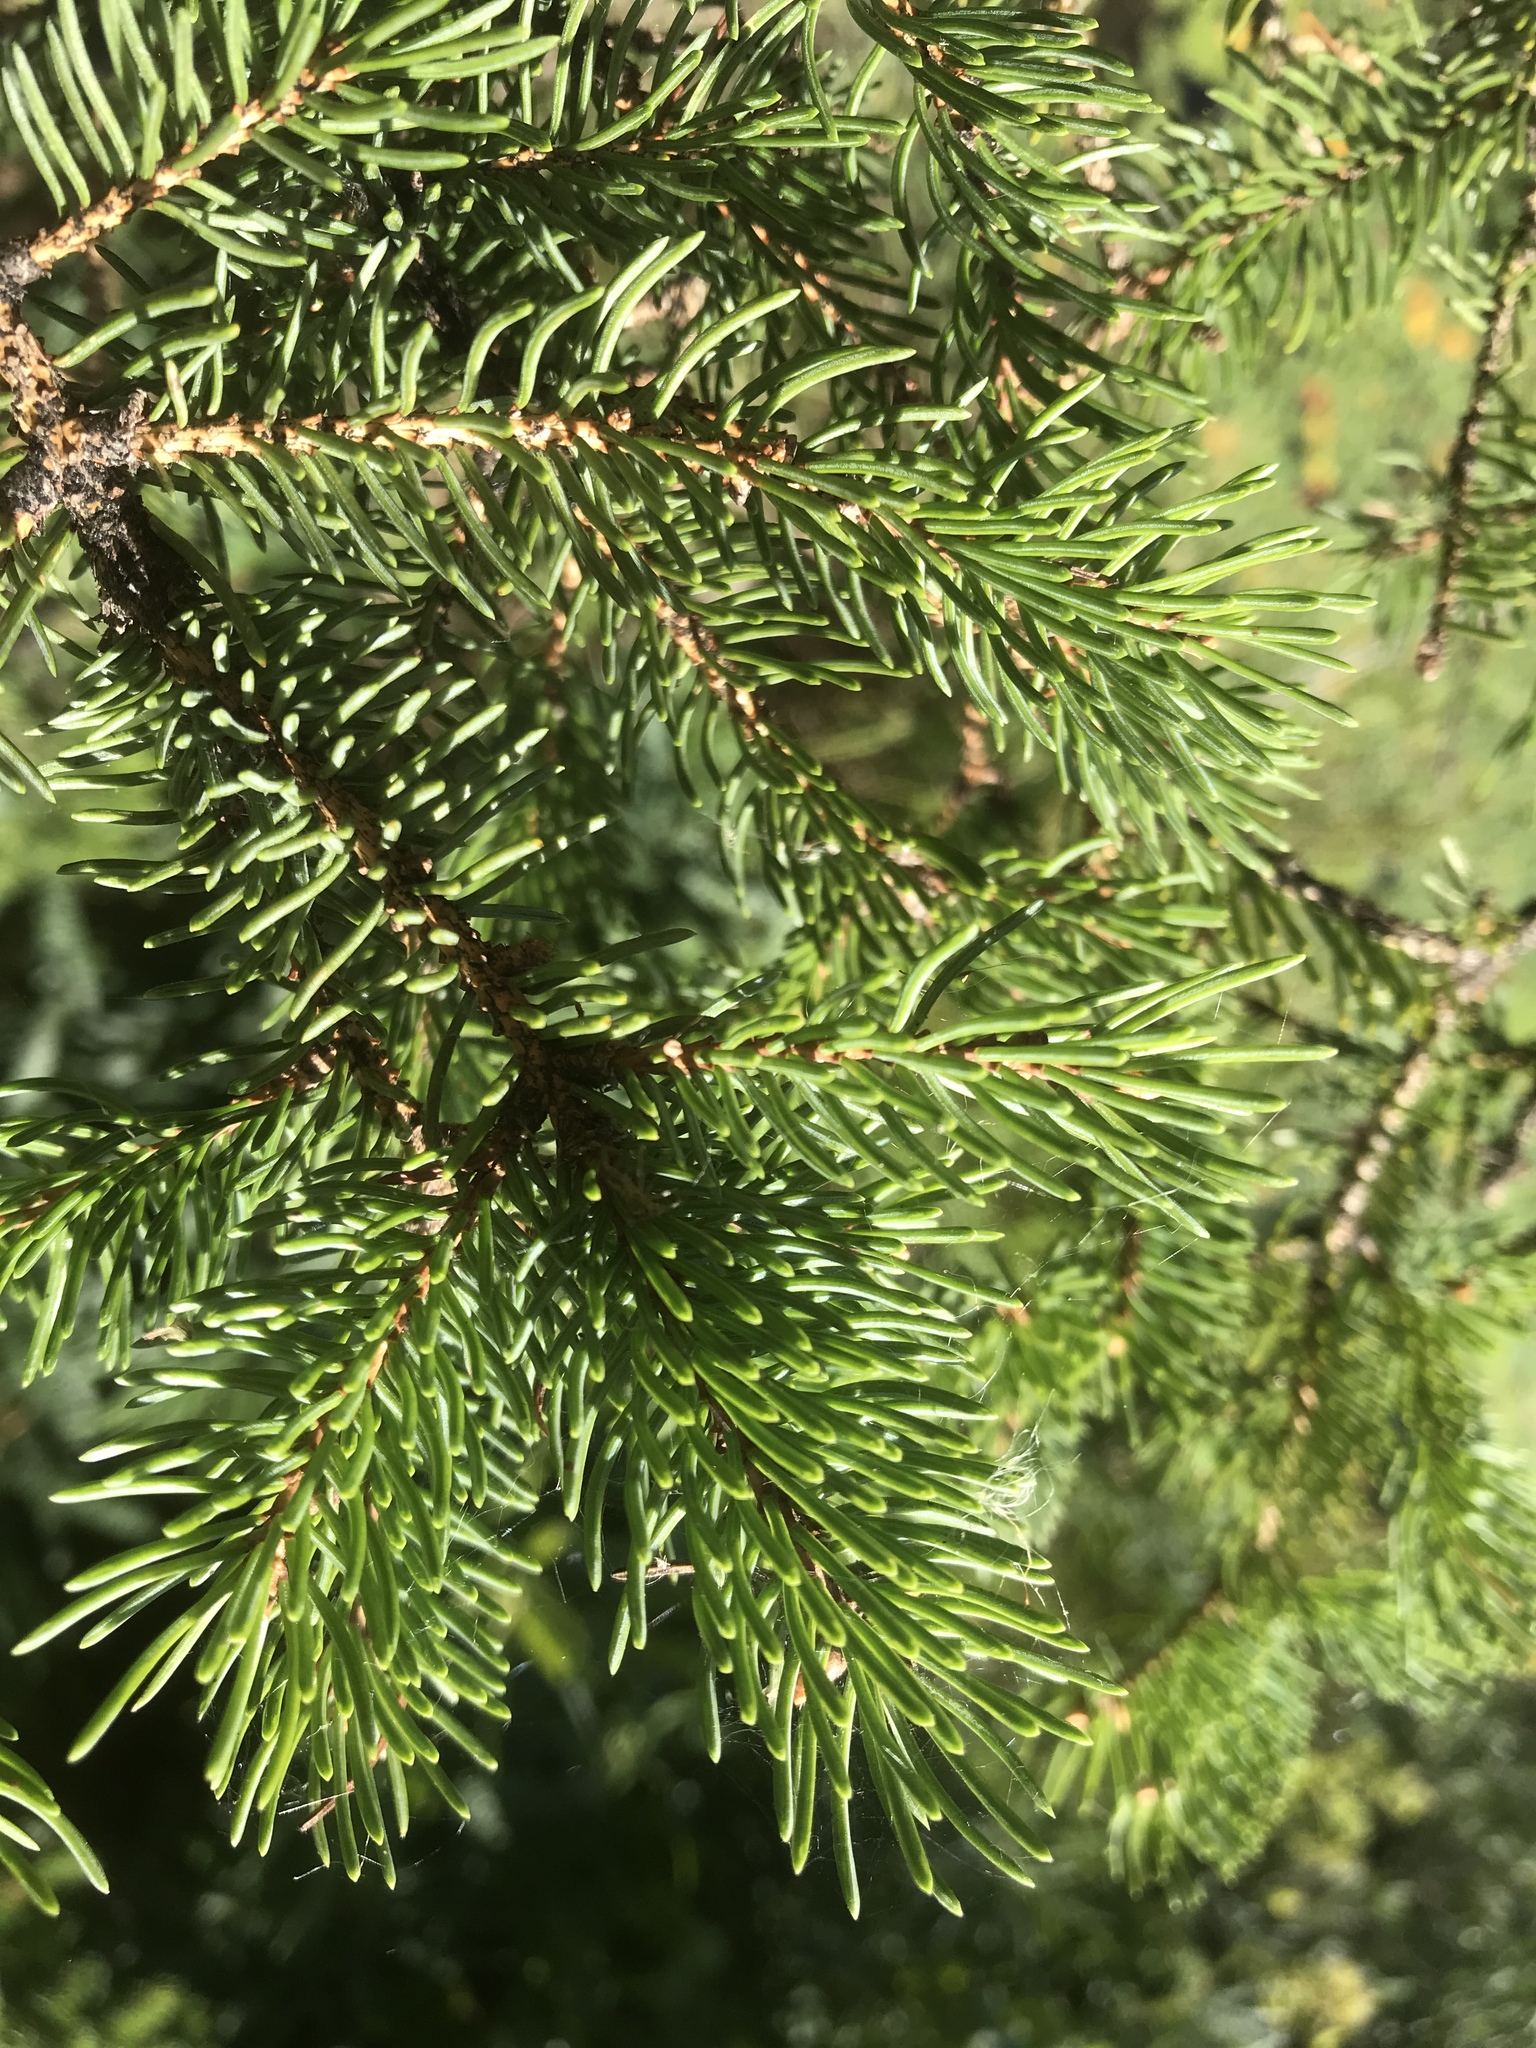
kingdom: Plantae
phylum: Tracheophyta
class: Pinopsida
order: Pinales
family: Pinaceae
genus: Picea
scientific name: Picea glauca
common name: White spruce
